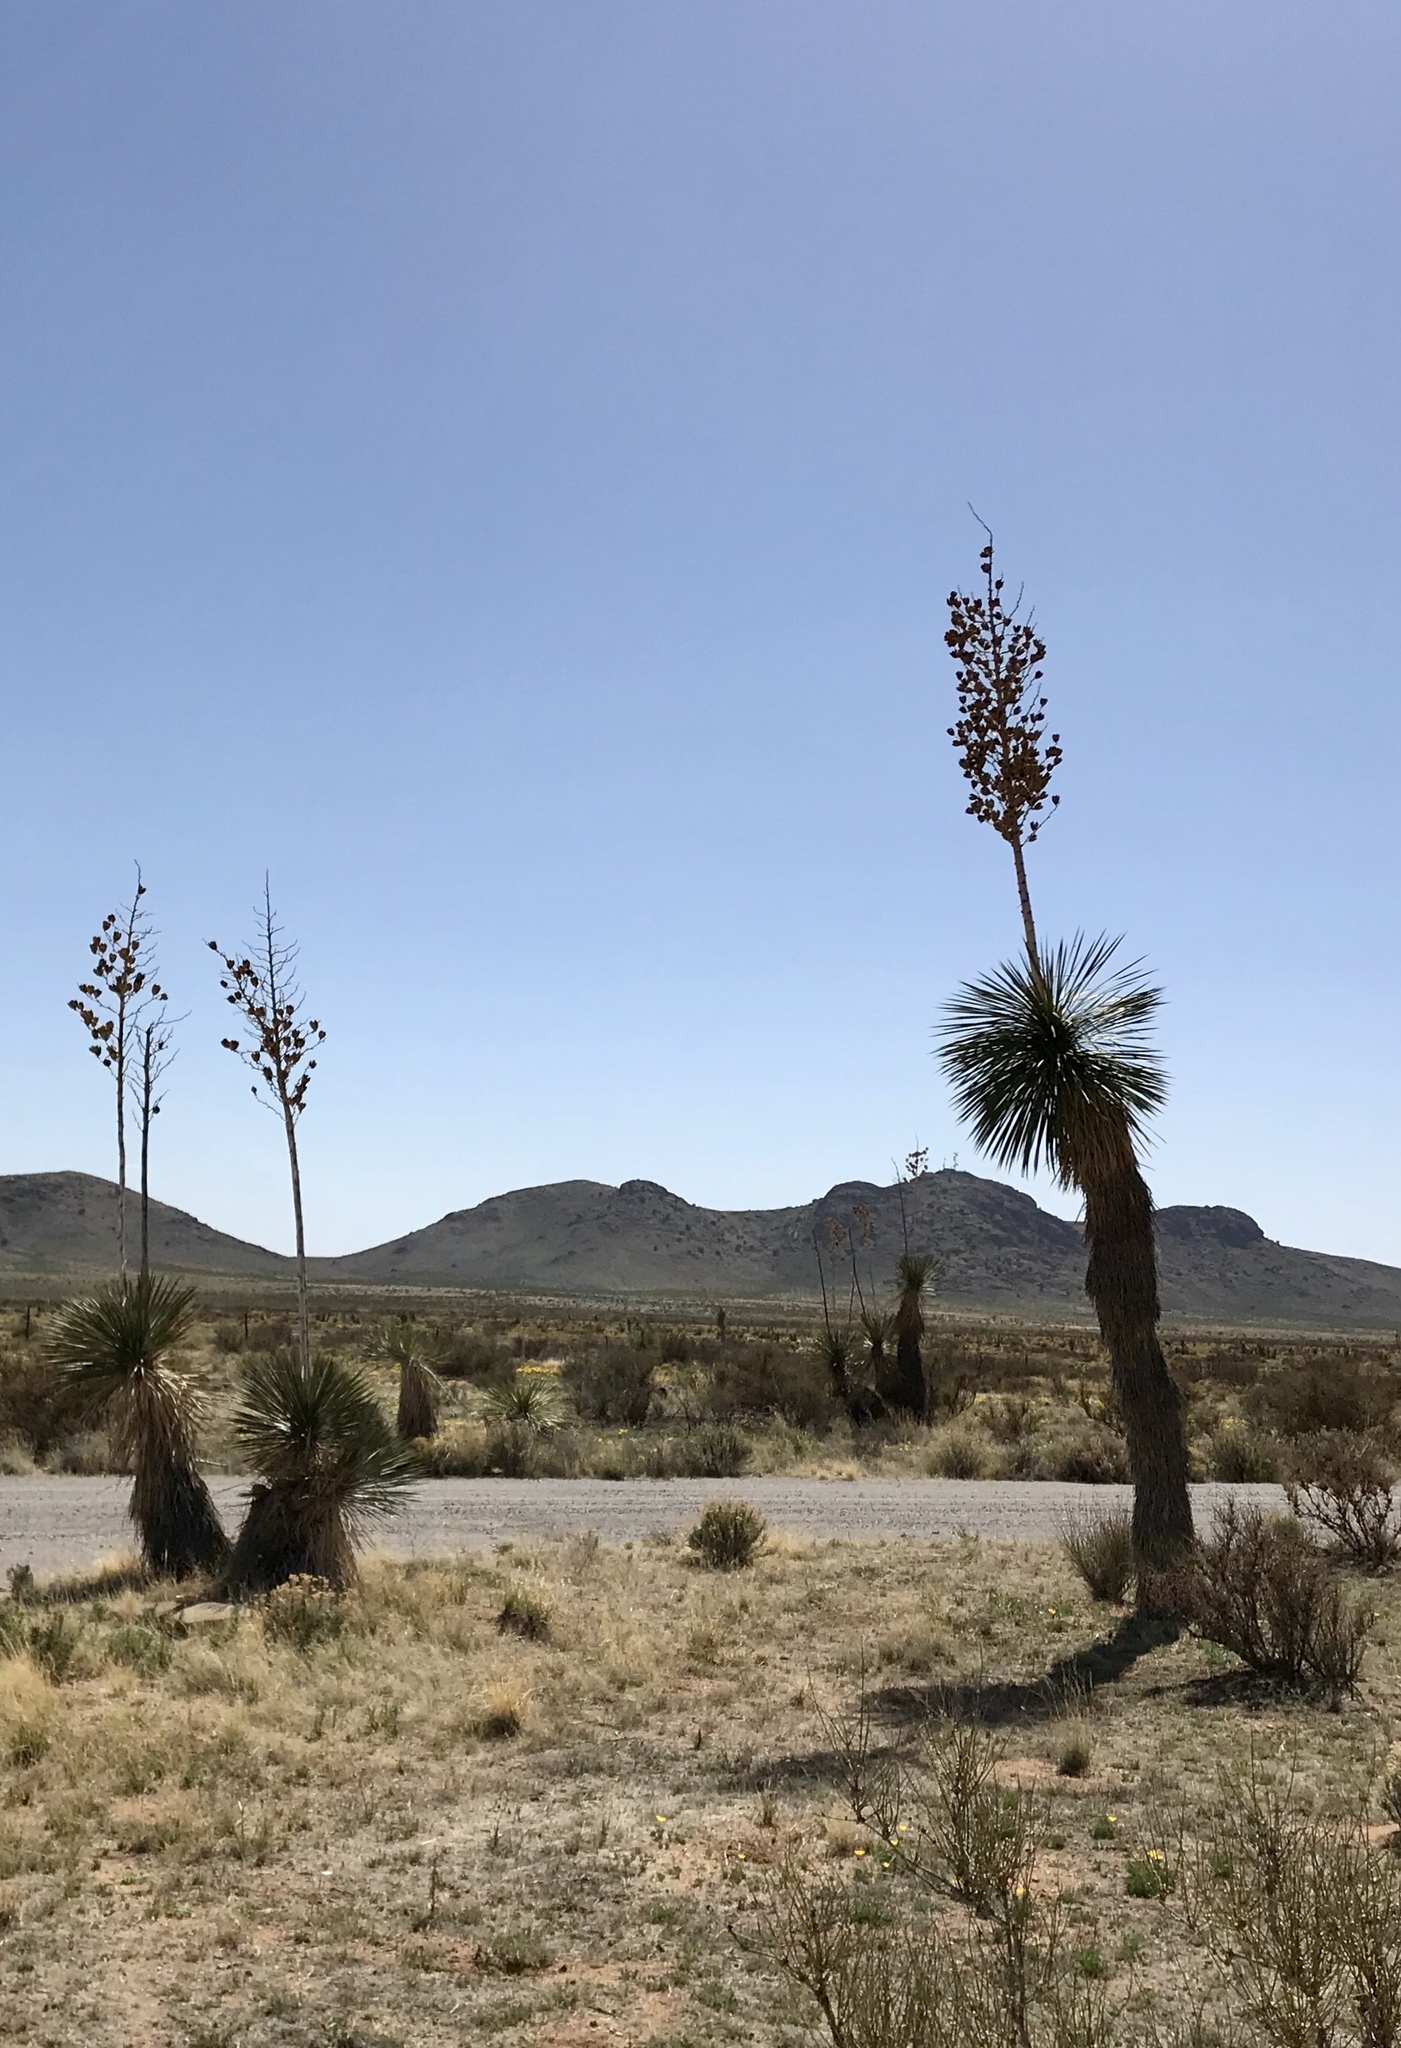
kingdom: Plantae
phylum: Tracheophyta
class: Liliopsida
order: Asparagales
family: Asparagaceae
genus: Yucca
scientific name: Yucca elata
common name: Palmella
